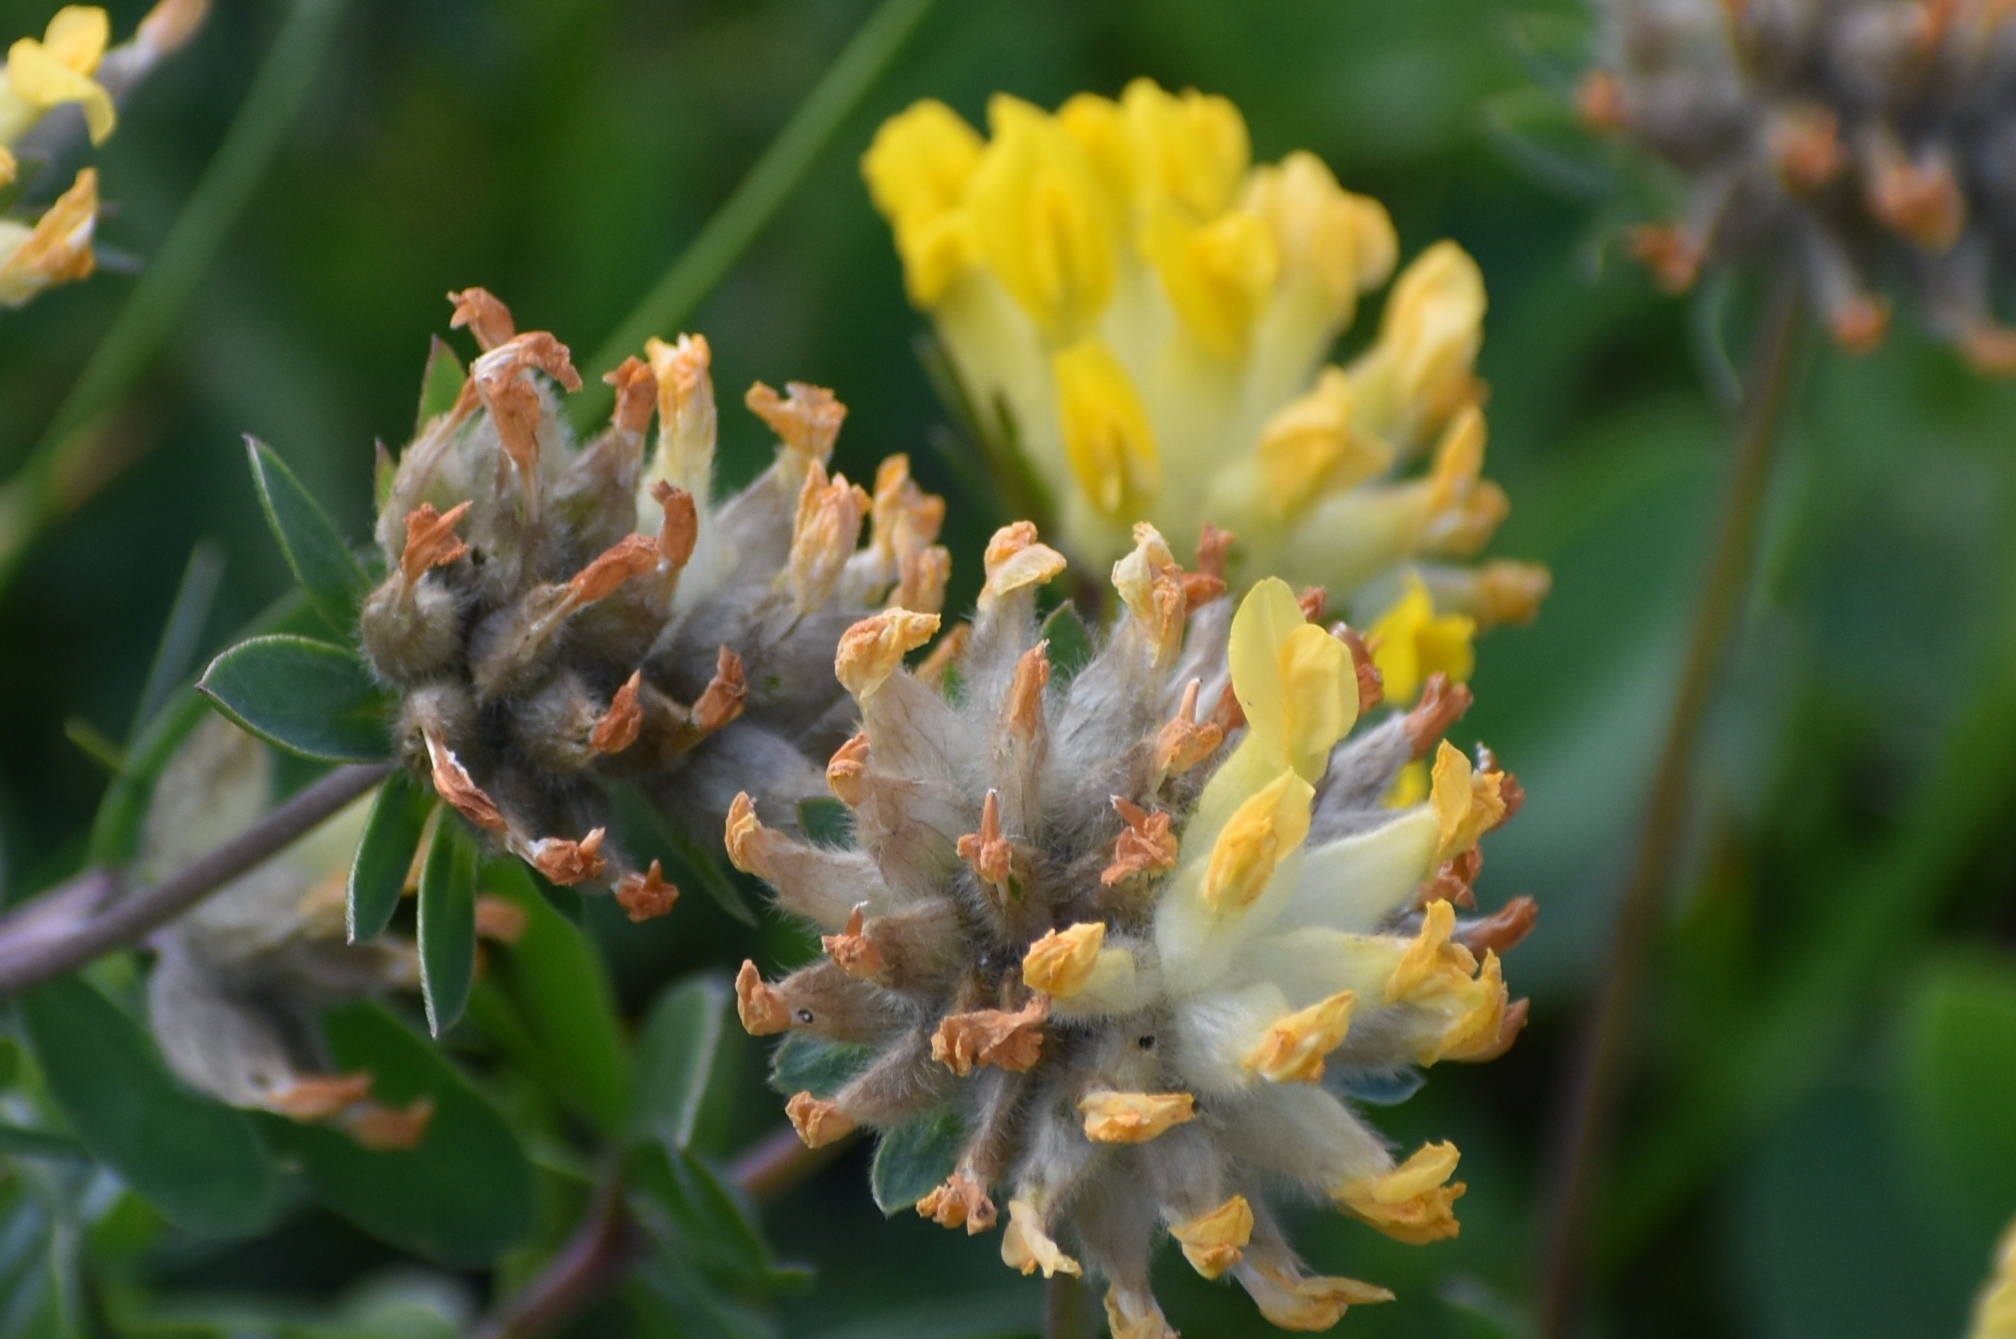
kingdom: Plantae
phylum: Tracheophyta
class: Magnoliopsida
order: Fabales
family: Fabaceae
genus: Anthyllis
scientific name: Anthyllis vulneraria
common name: Kidney vetch
